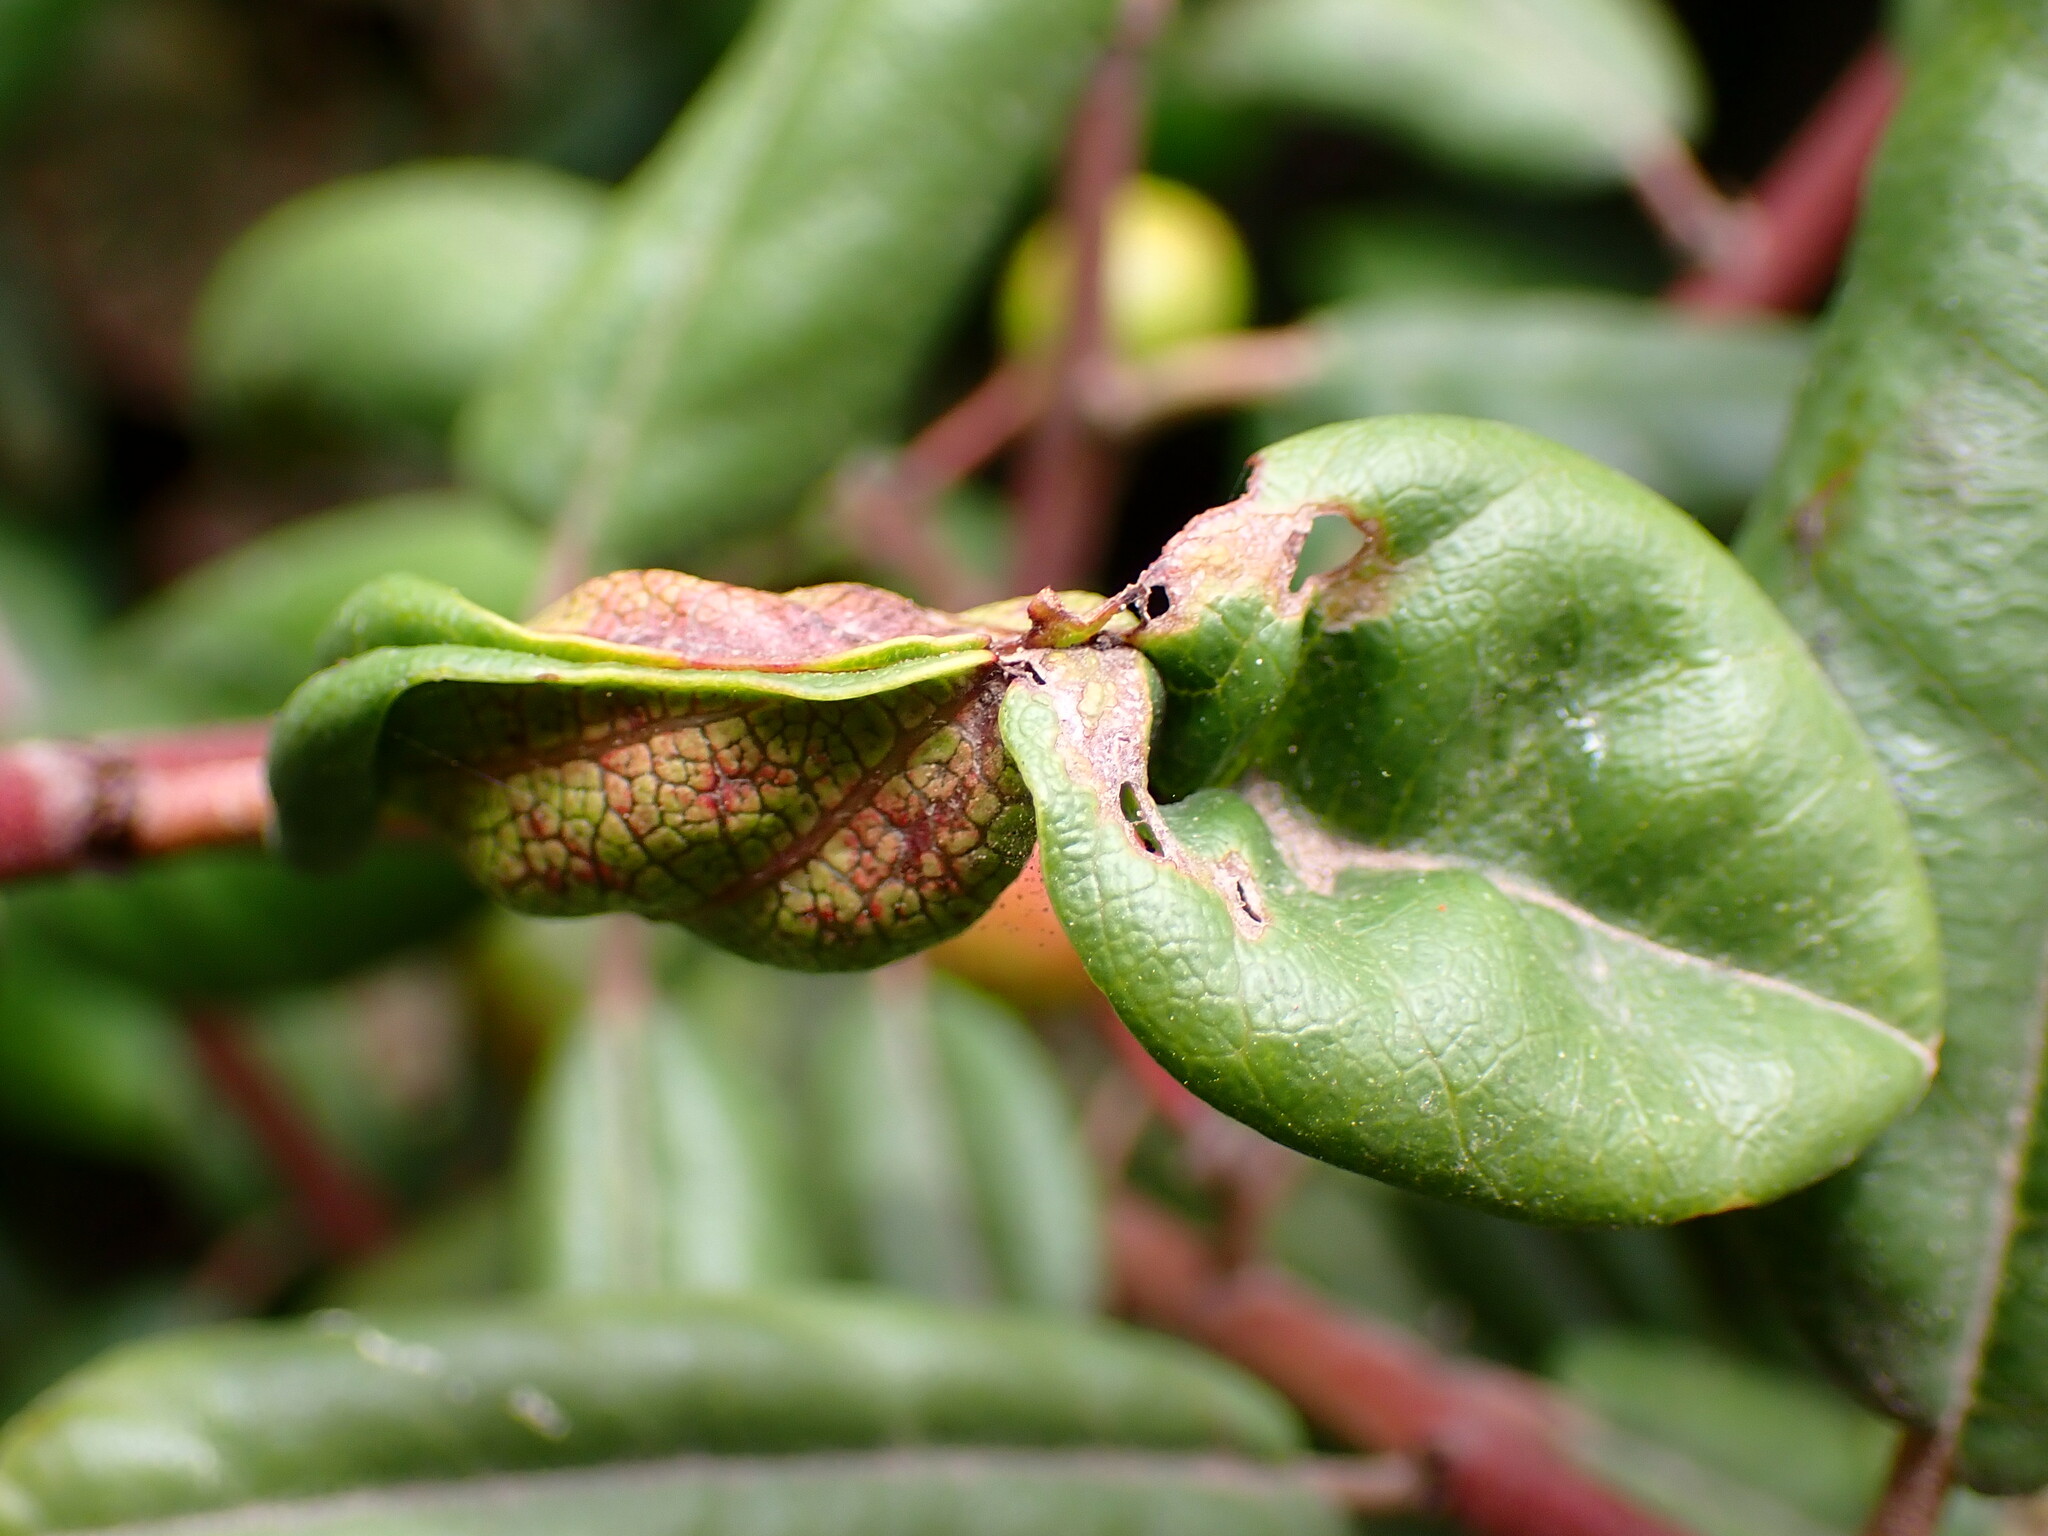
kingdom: Animalia
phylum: Arthropoda
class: Insecta
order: Lepidoptera
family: Cosmopterigidae
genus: Sorhagenia
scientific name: Sorhagenia nimbosus
